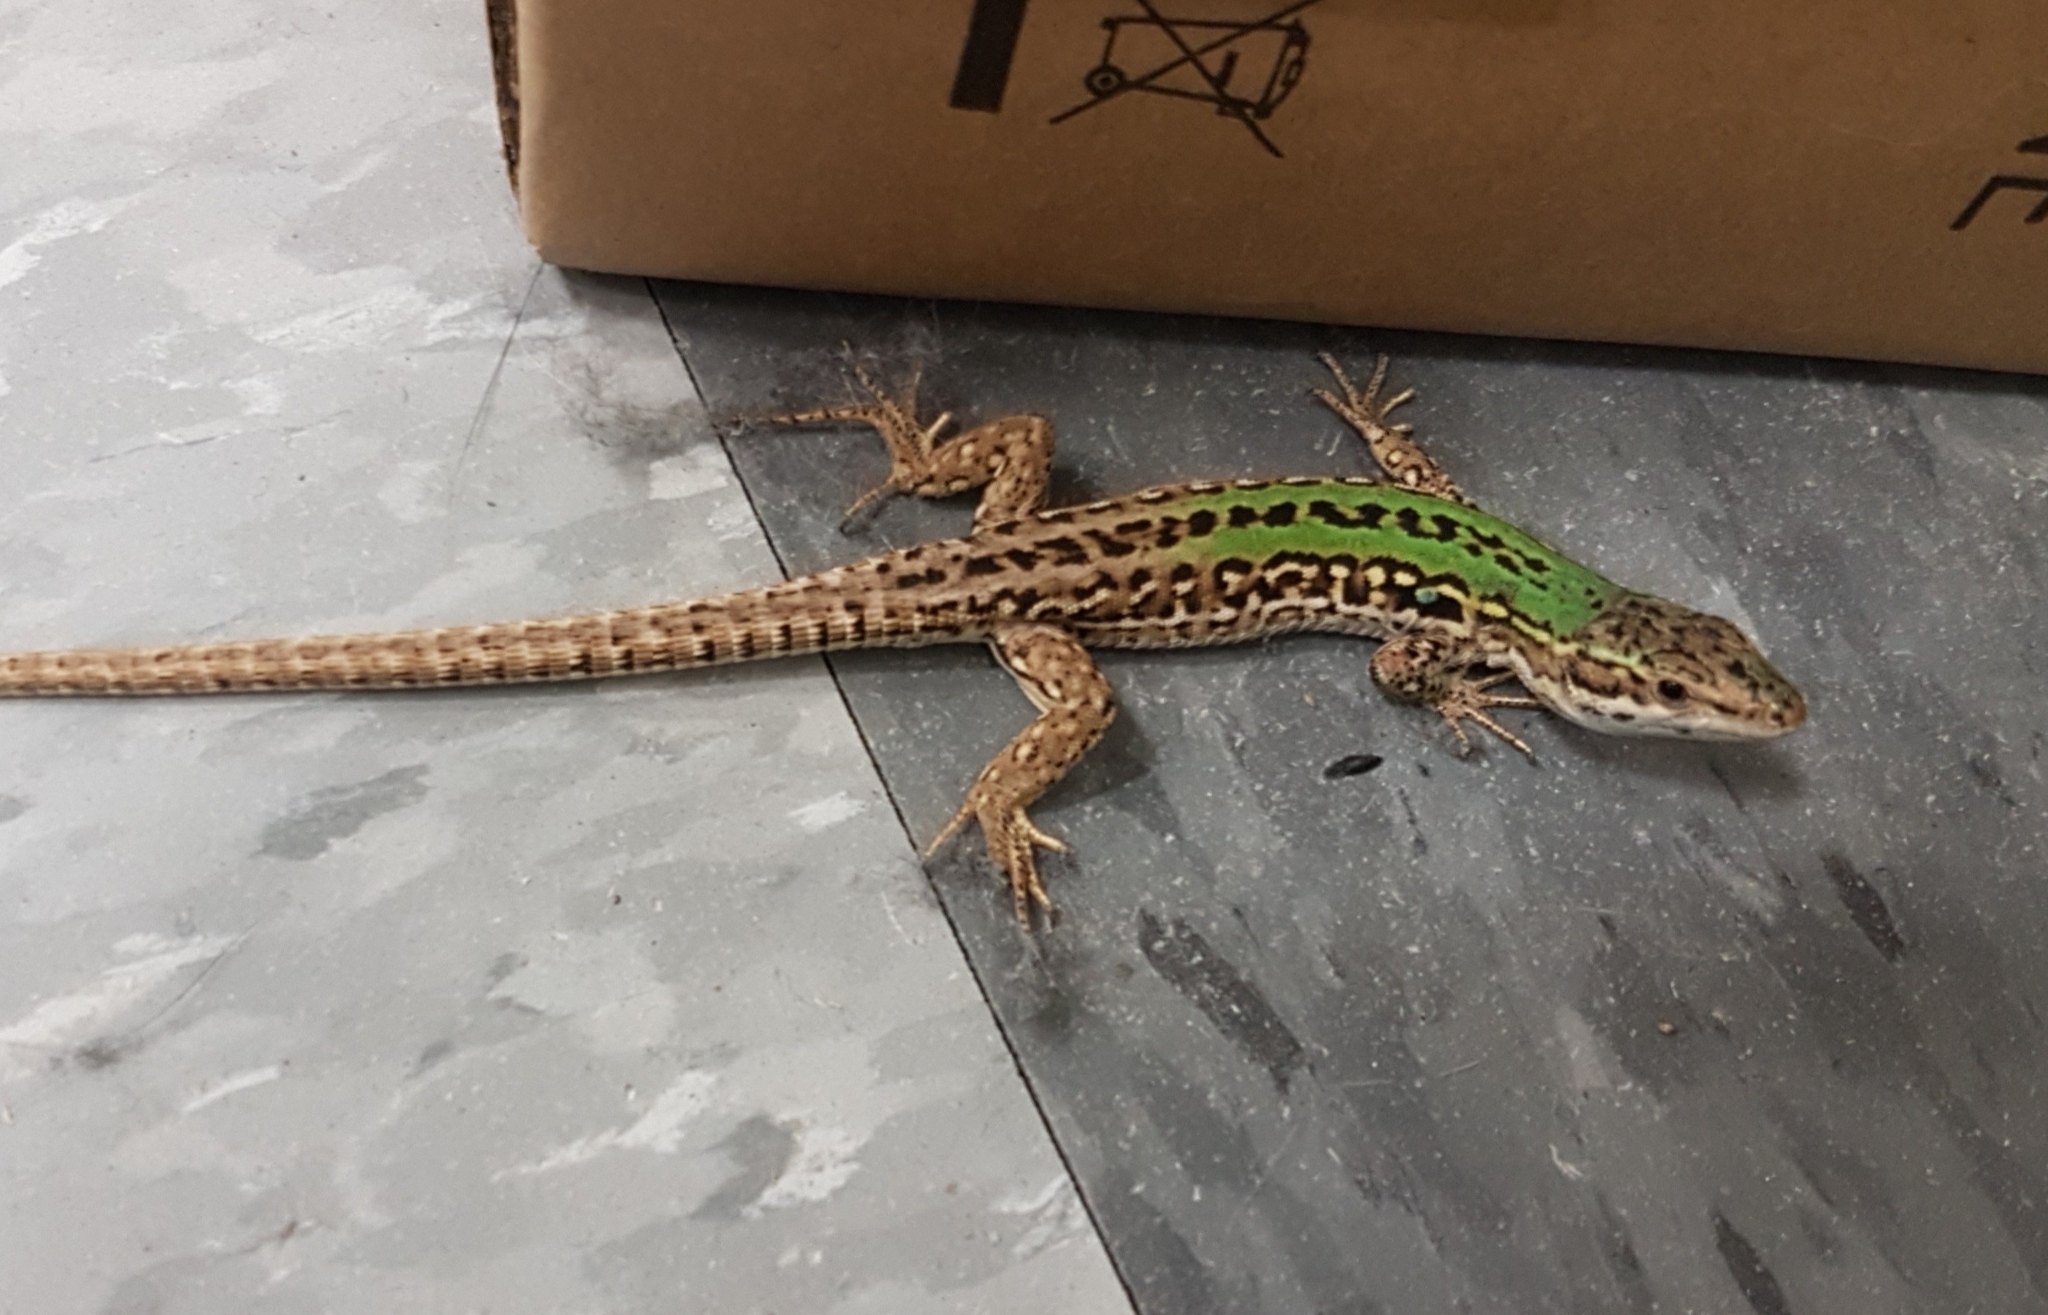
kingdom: Animalia
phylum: Chordata
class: Squamata
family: Lacertidae
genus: Podarcis
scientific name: Podarcis siculus
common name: Italian wall lizard
